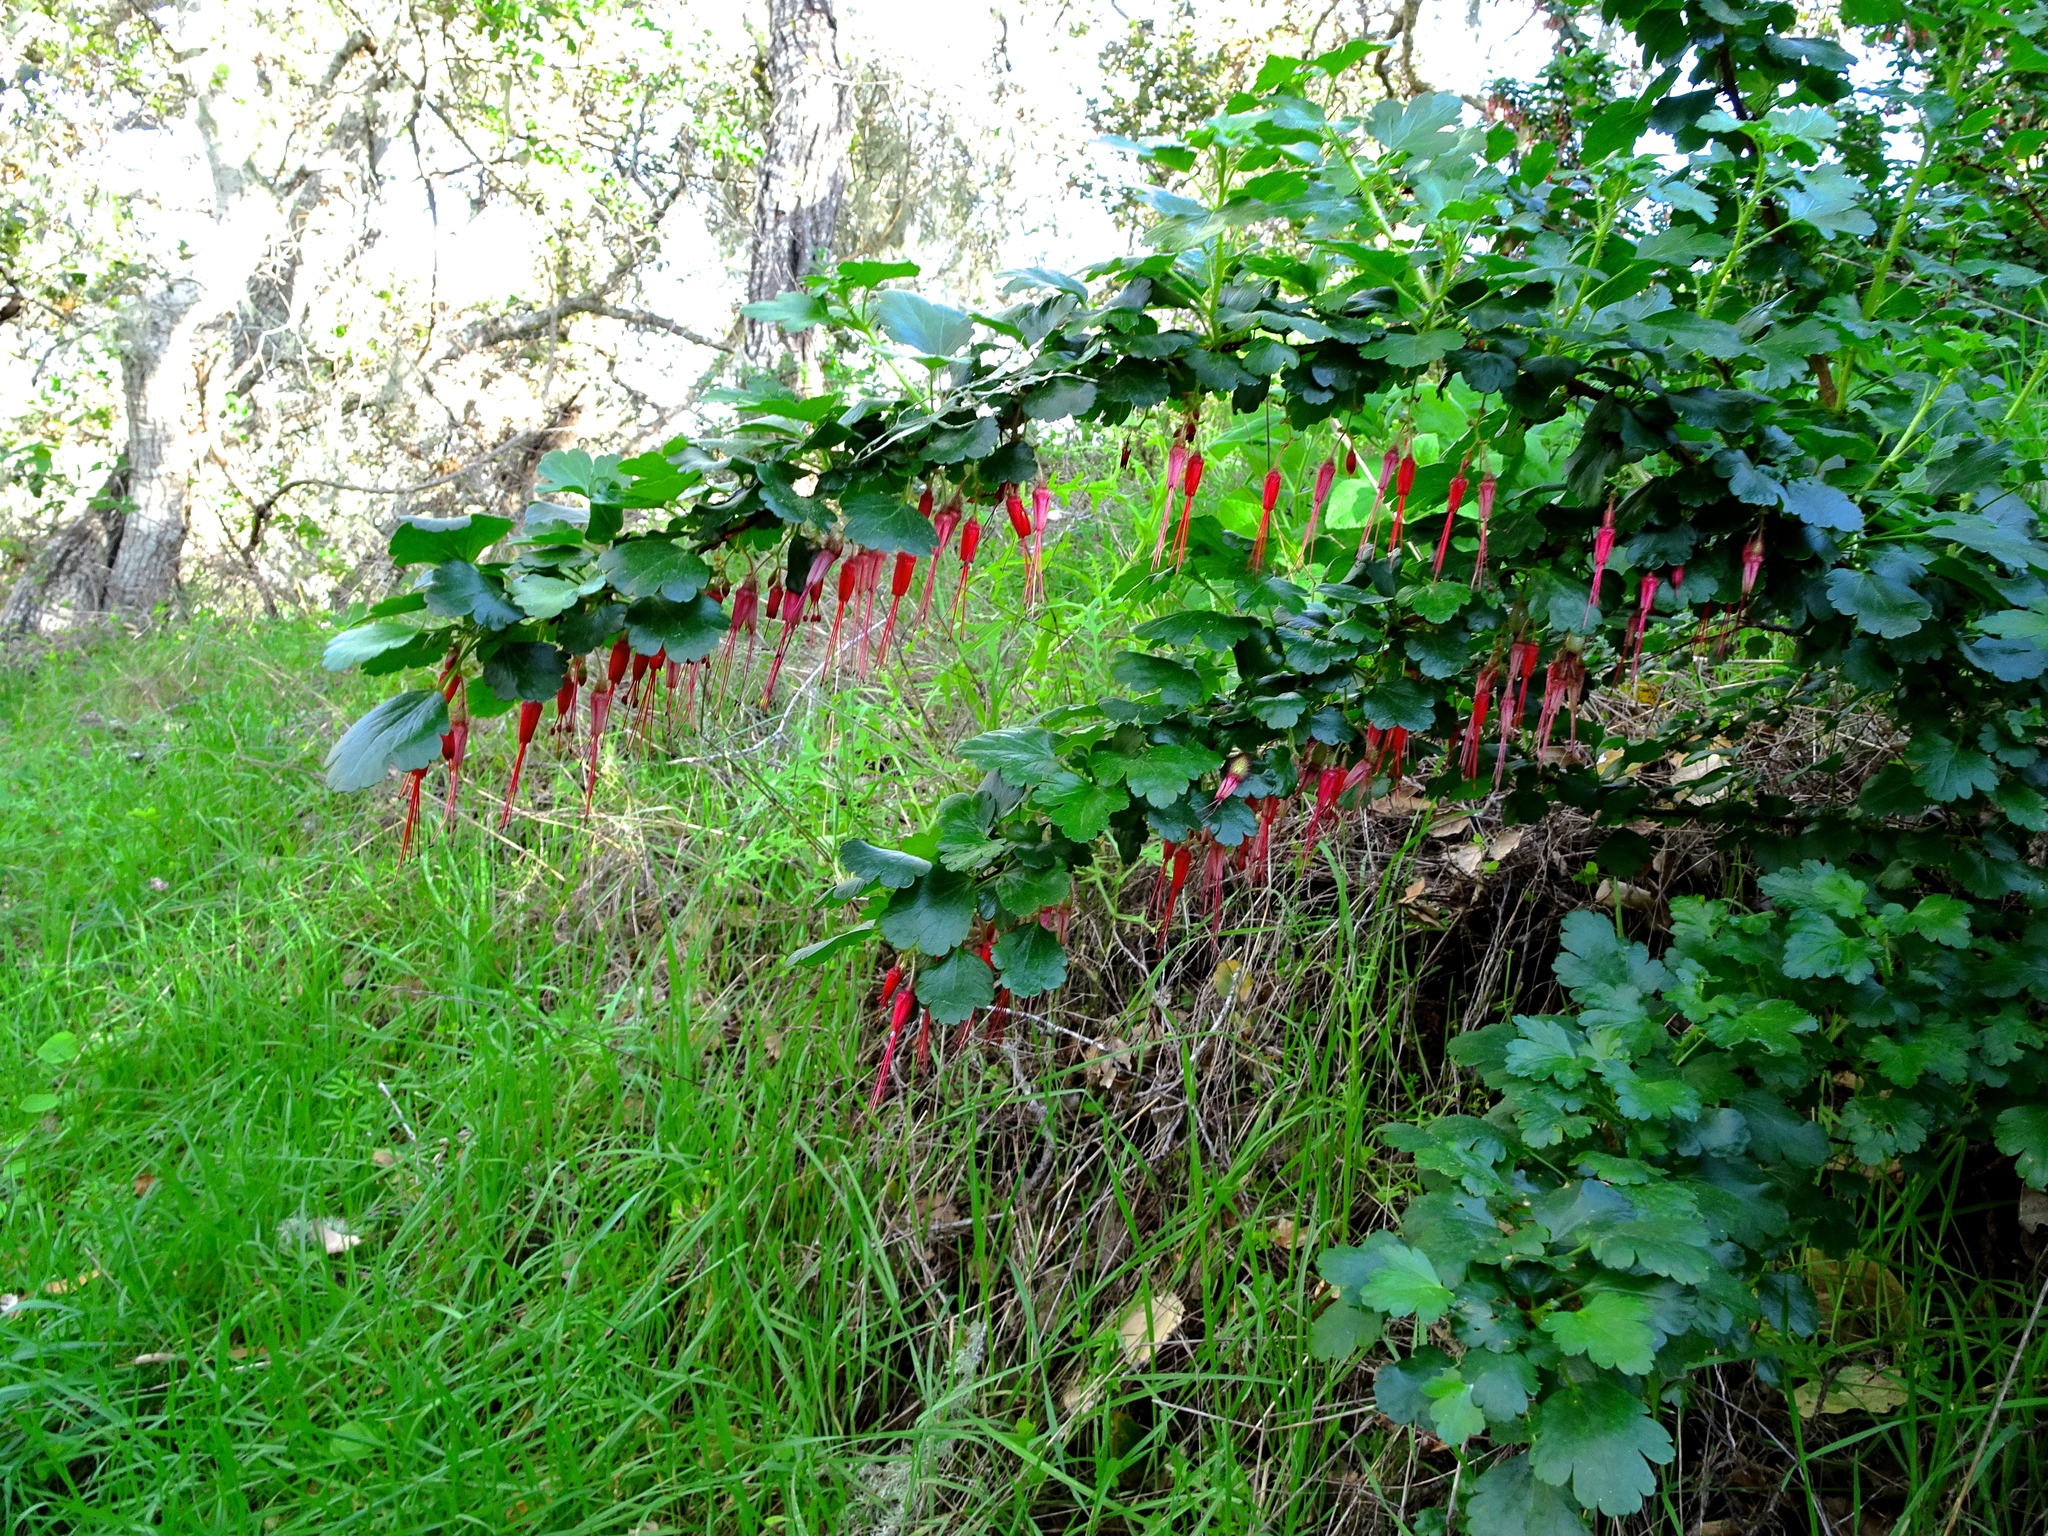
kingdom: Plantae
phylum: Tracheophyta
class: Magnoliopsida
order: Saxifragales
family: Grossulariaceae
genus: Ribes
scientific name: Ribes speciosum
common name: Fuchsia-flower gooseberry
